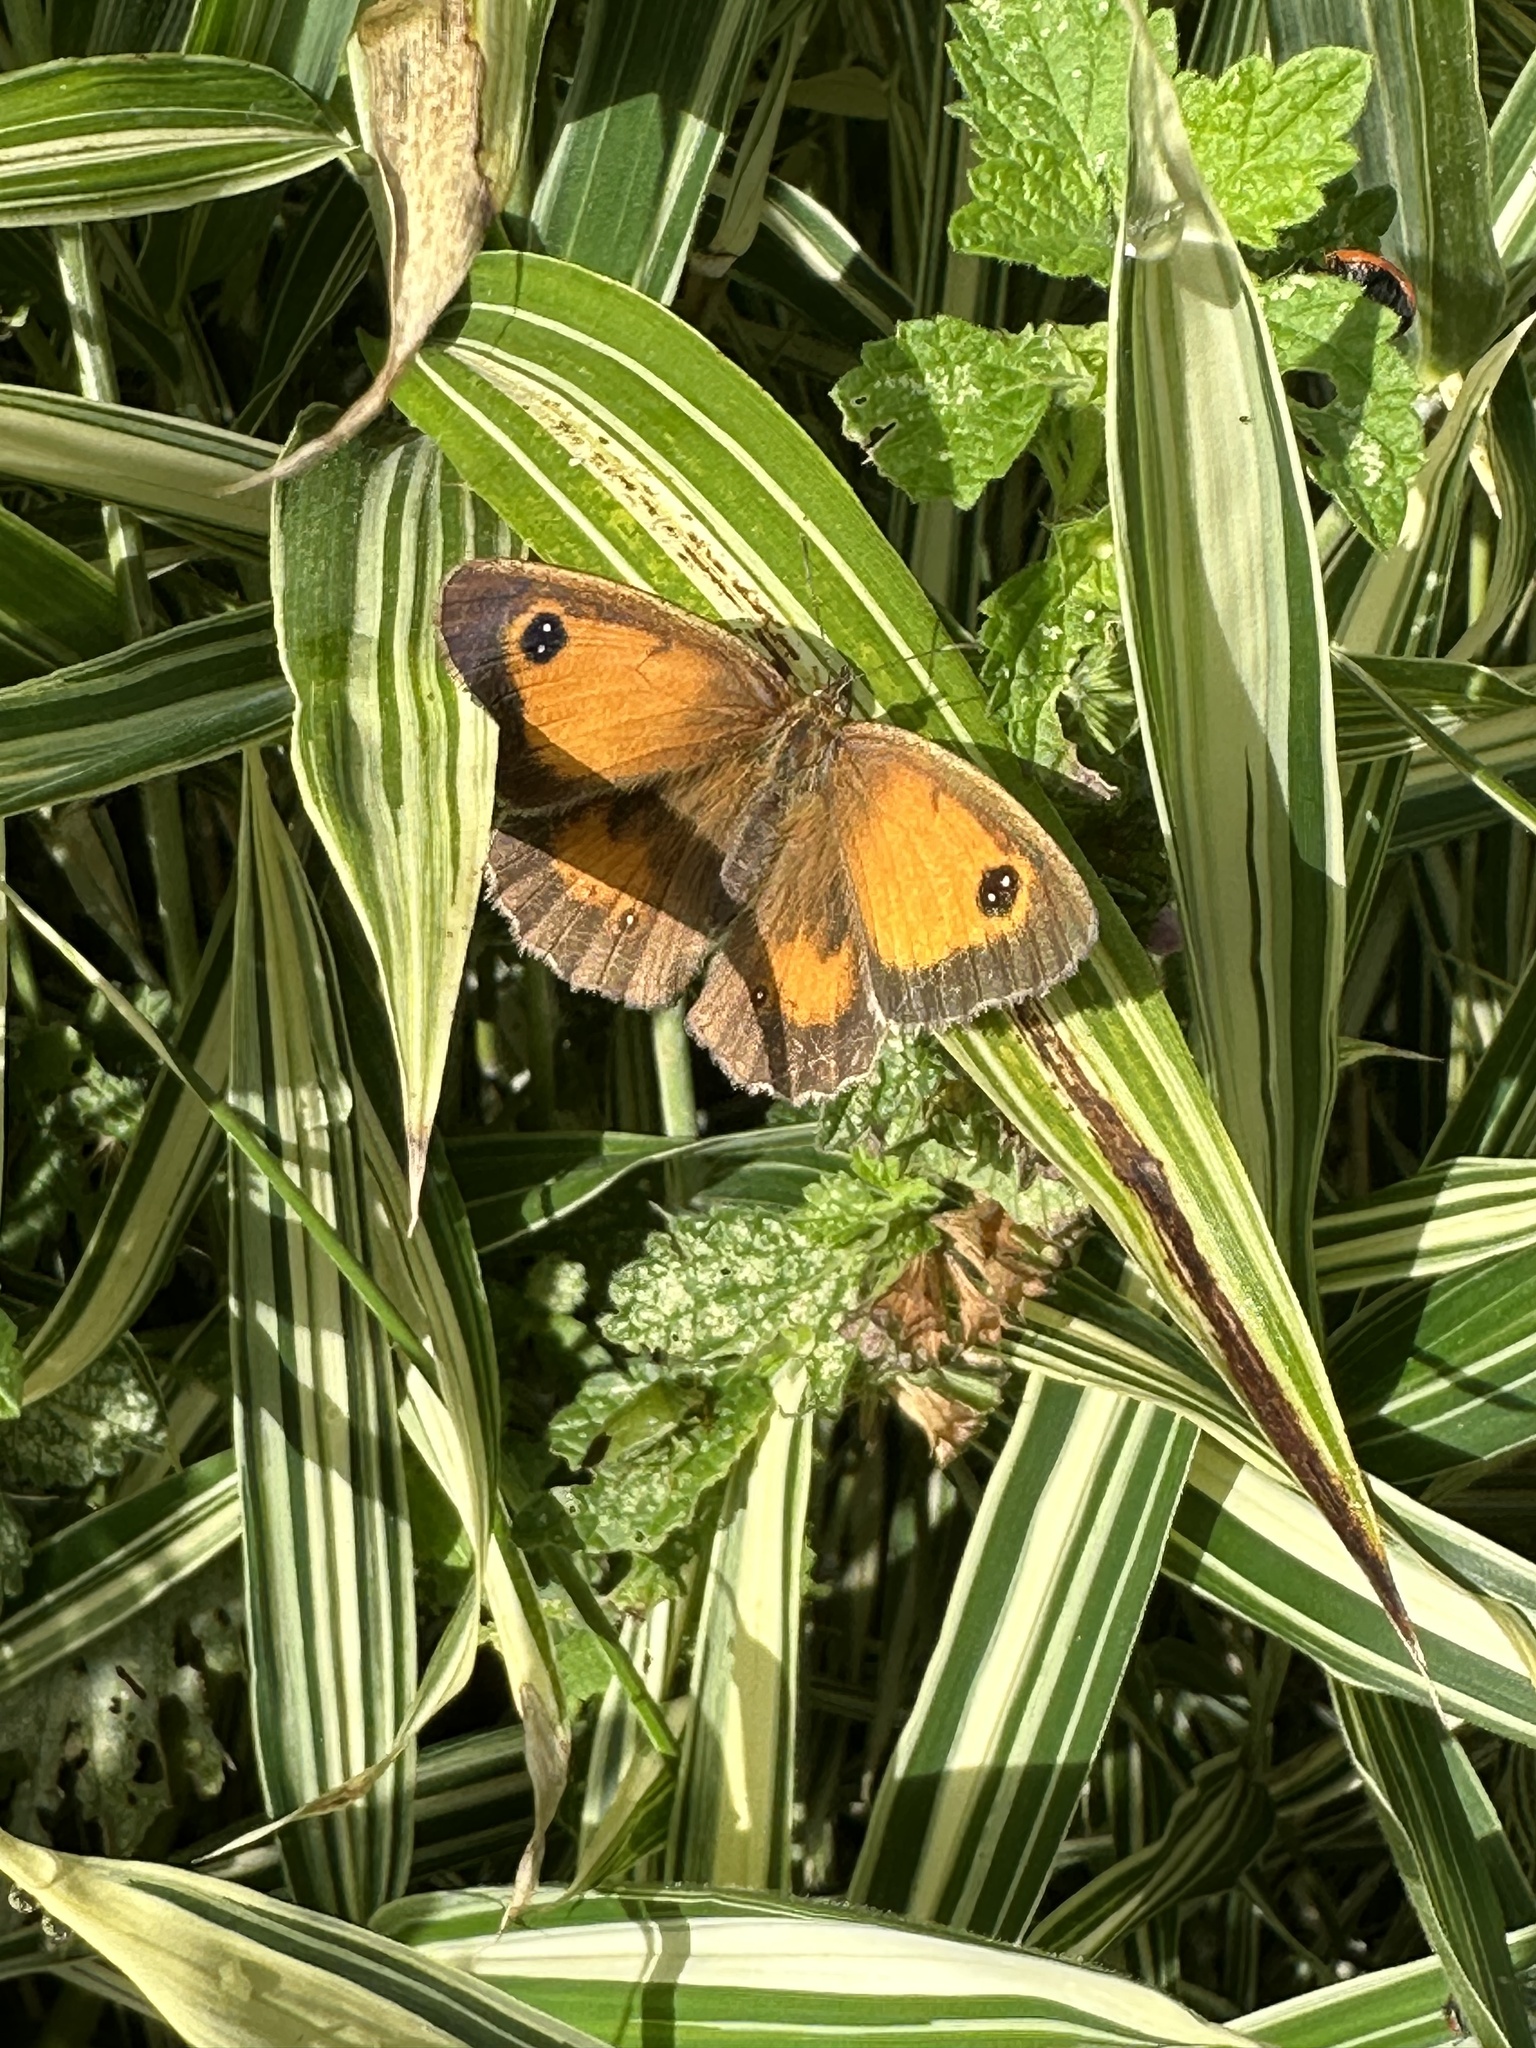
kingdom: Animalia
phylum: Arthropoda
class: Insecta
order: Lepidoptera
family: Nymphalidae
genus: Pyronia
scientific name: Pyronia tithonus
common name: Gatekeeper
